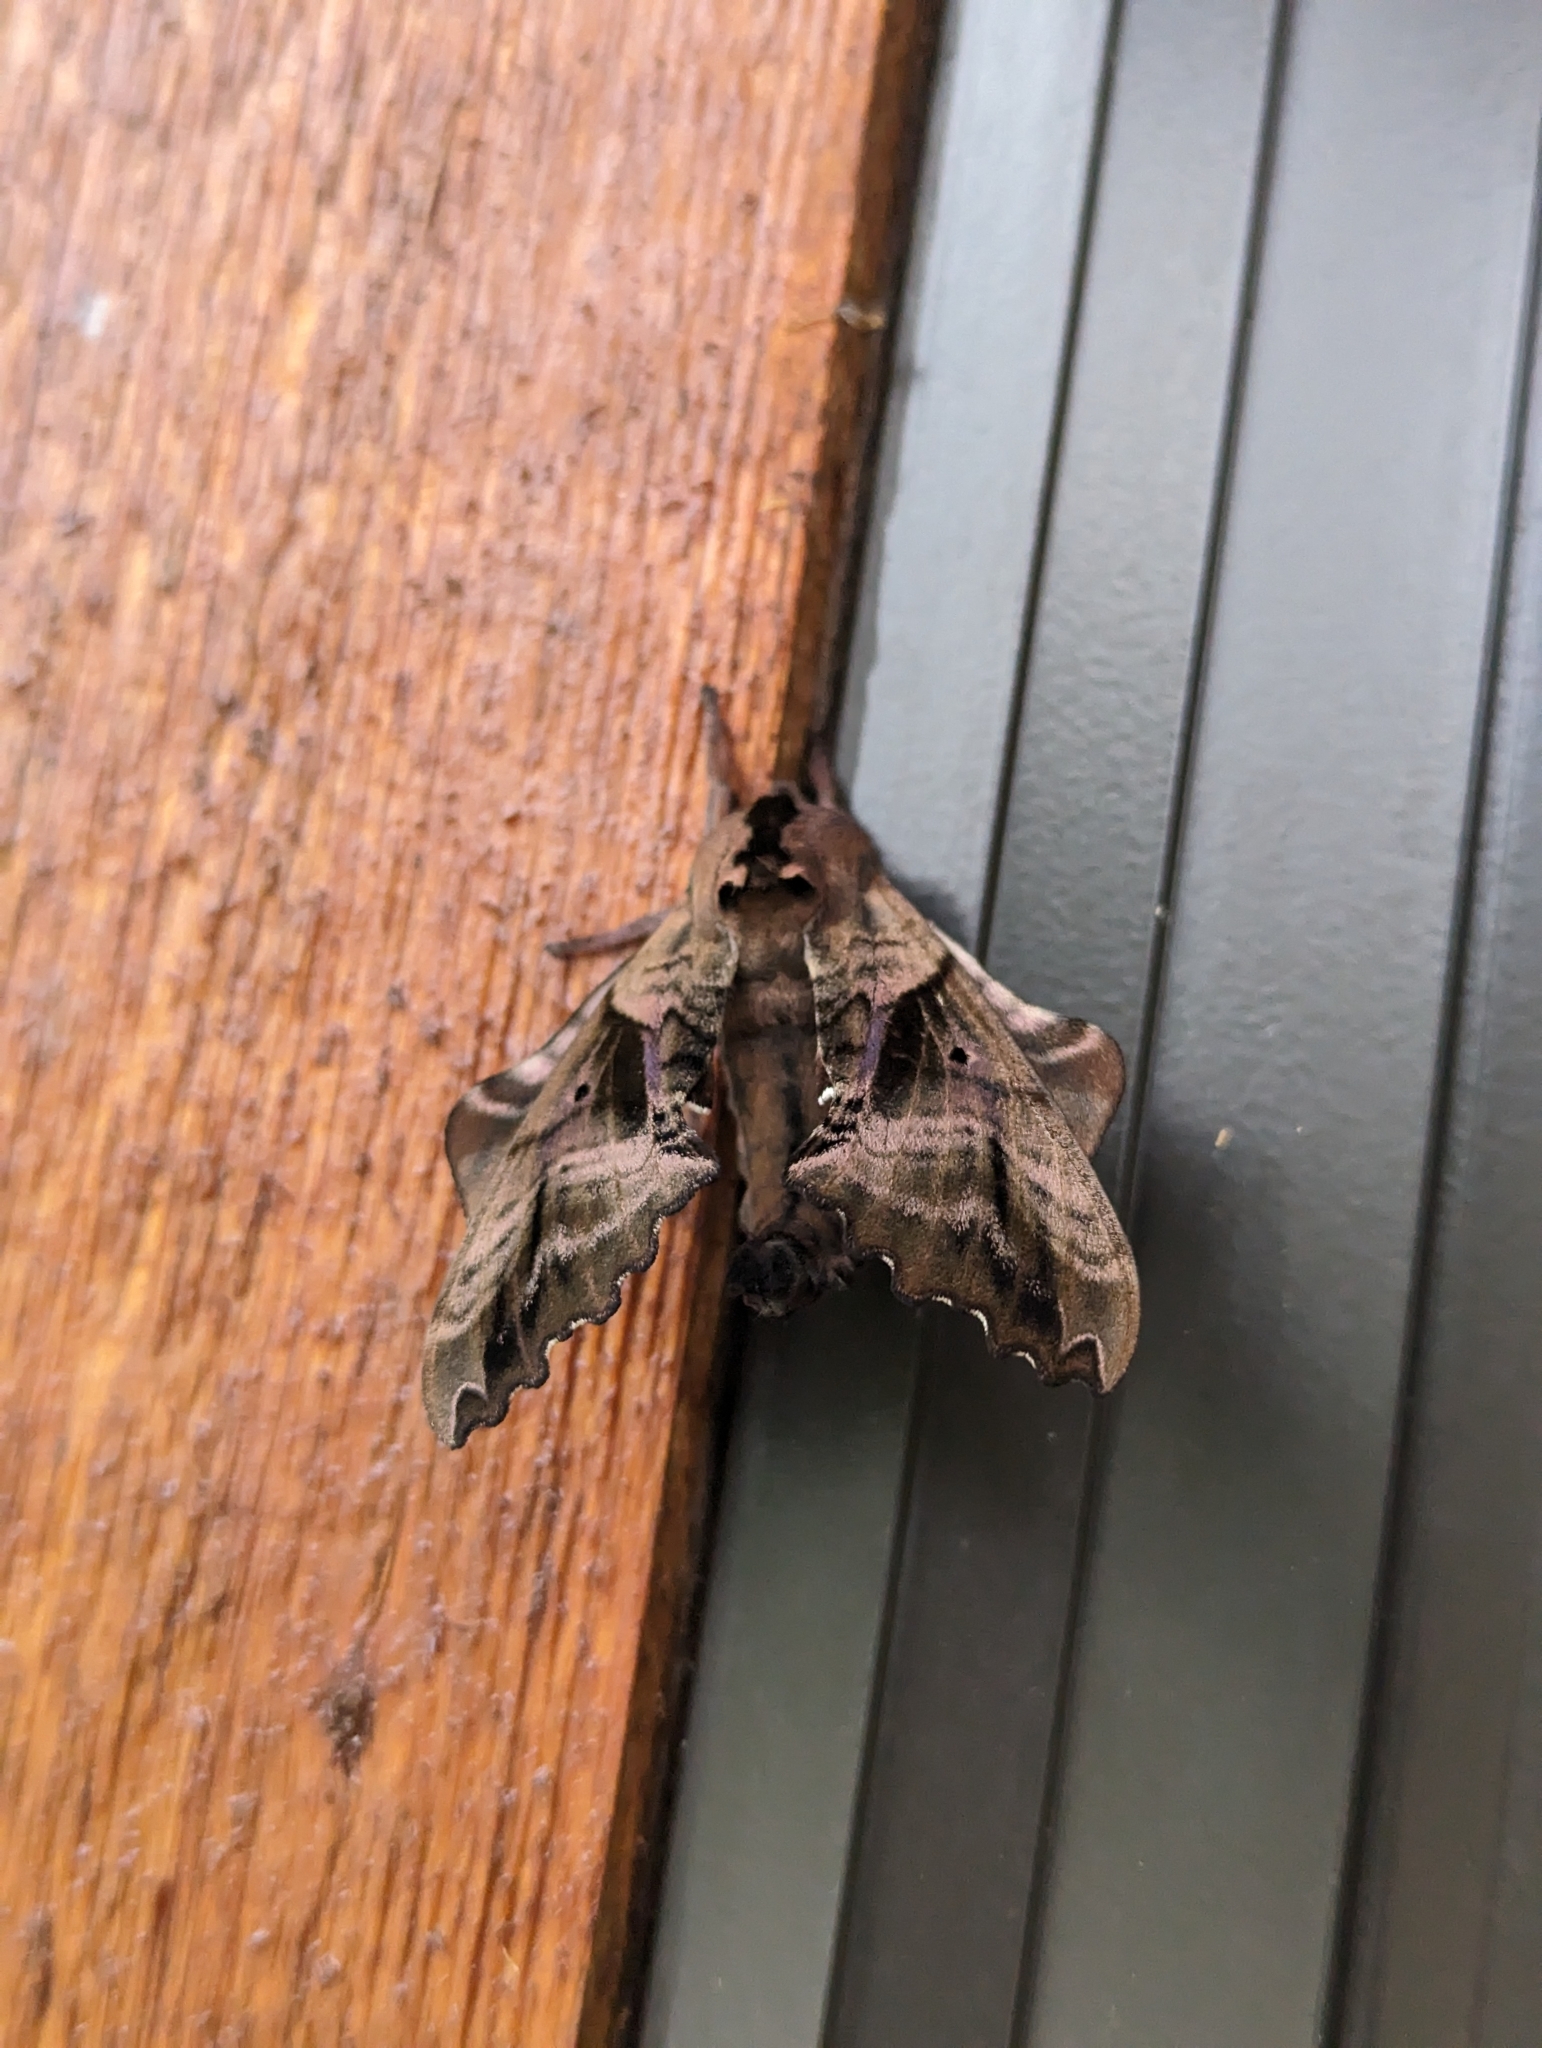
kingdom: Animalia
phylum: Arthropoda
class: Insecta
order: Lepidoptera
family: Sphingidae
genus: Paonias
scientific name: Paonias excaecata
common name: Blind-eyed sphinx
